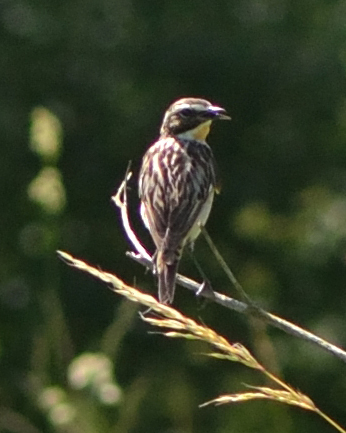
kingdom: Animalia
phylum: Chordata
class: Aves
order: Passeriformes
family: Muscicapidae
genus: Saxicola
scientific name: Saxicola rubetra
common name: Whinchat
